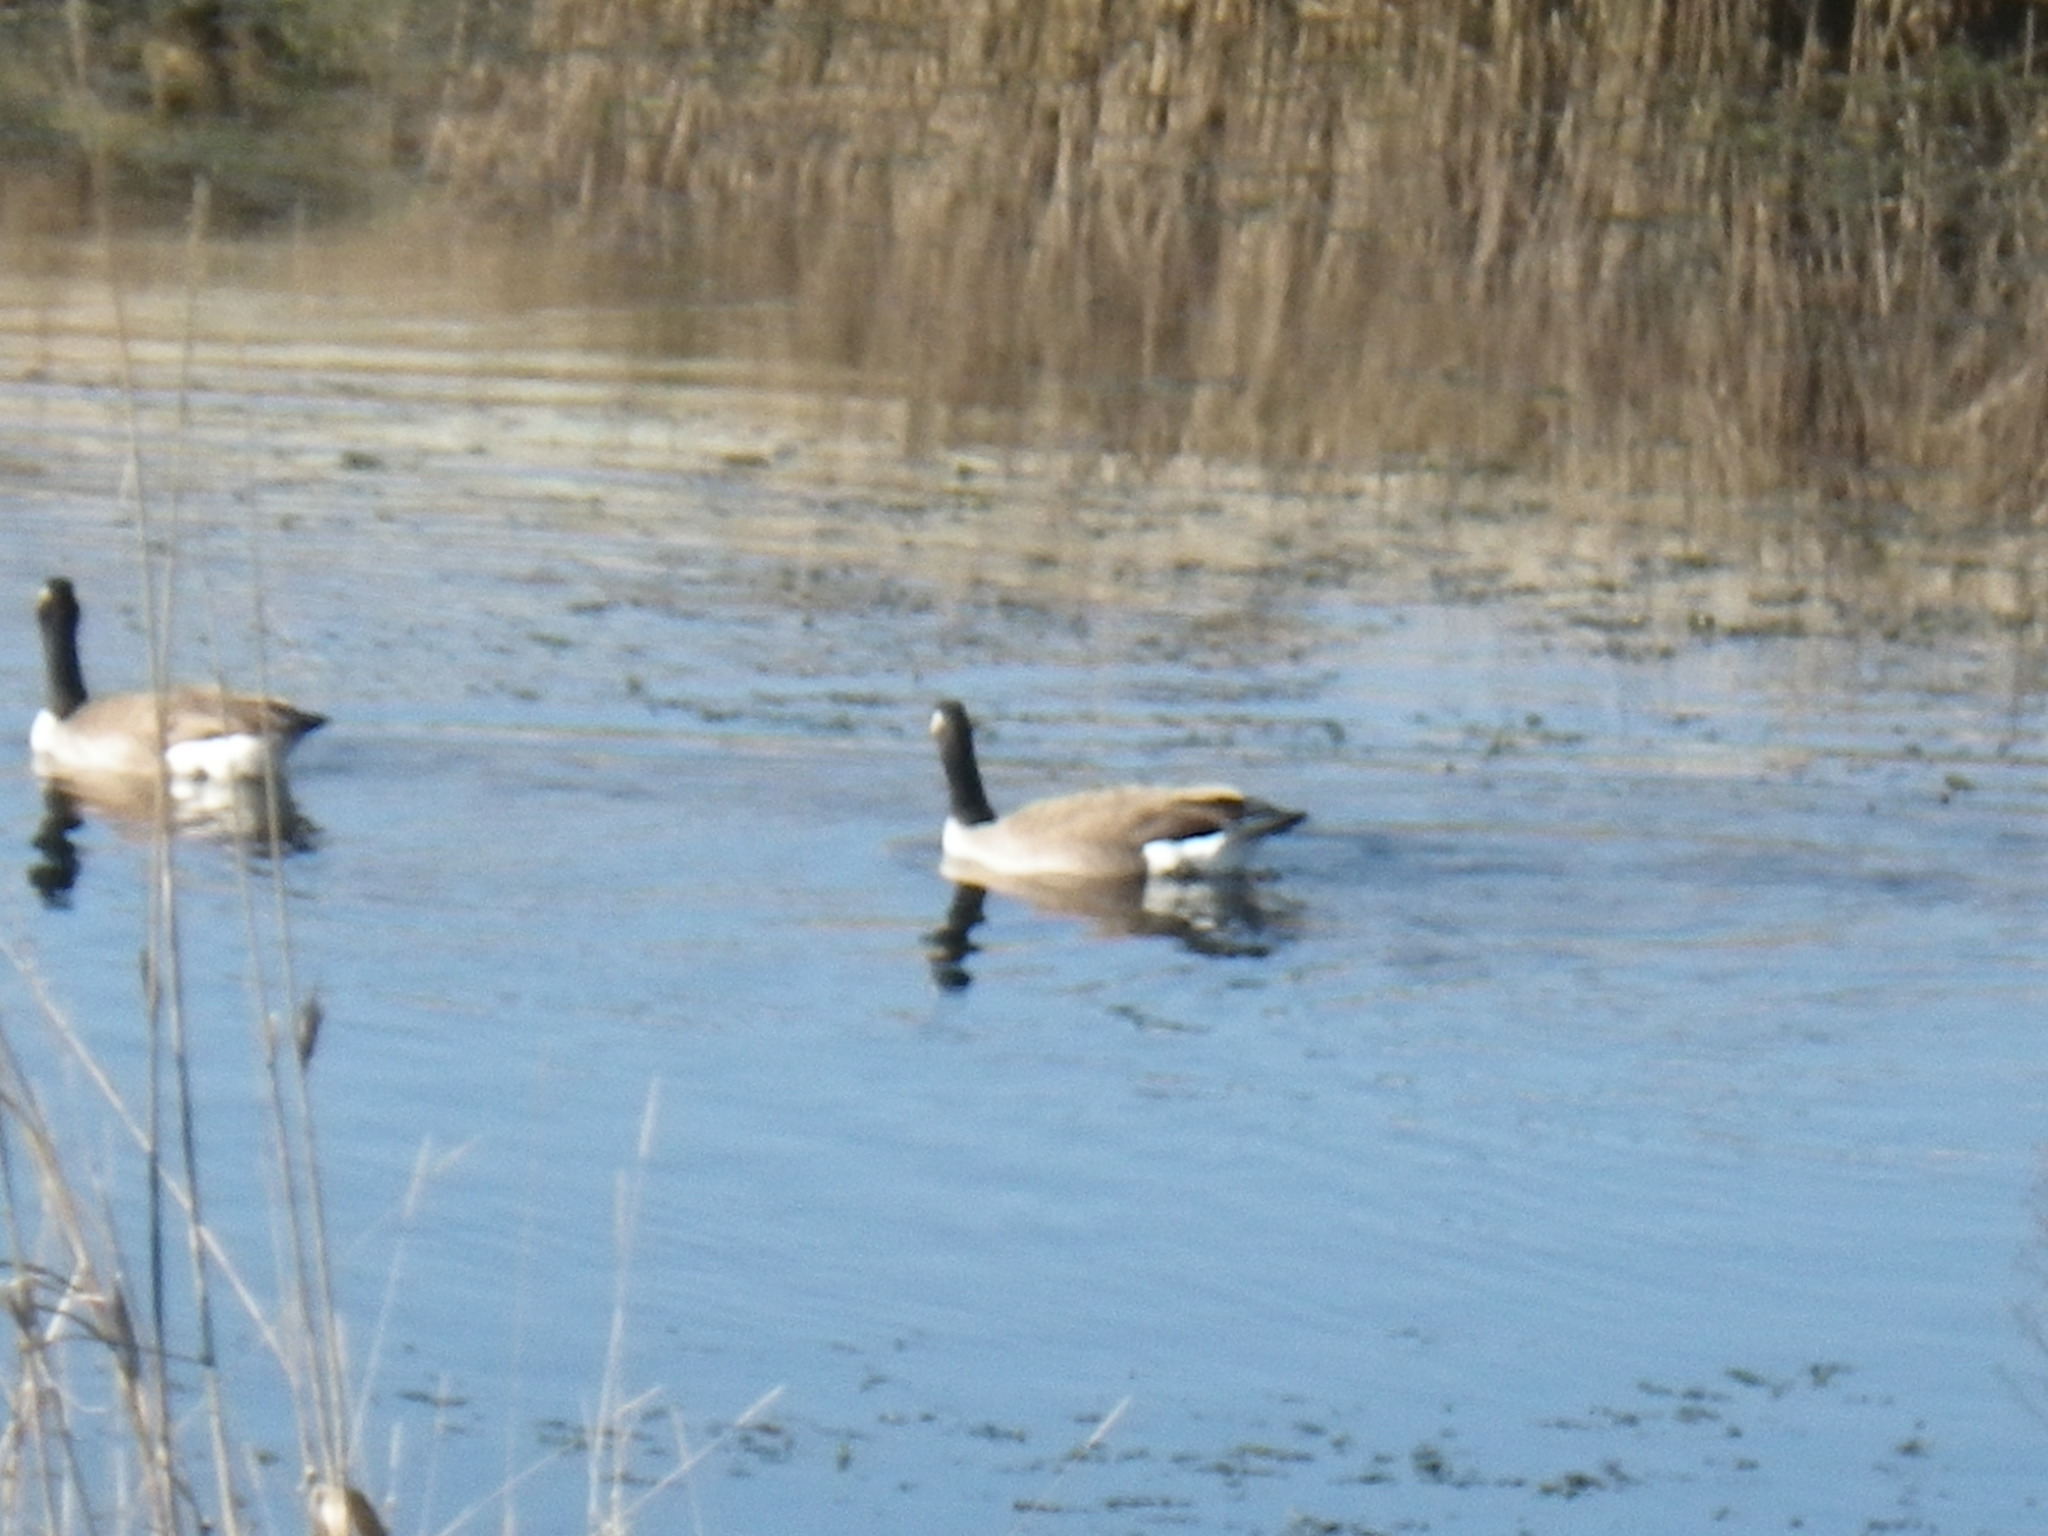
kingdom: Animalia
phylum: Chordata
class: Aves
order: Anseriformes
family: Anatidae
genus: Branta
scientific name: Branta canadensis
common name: Canada goose
